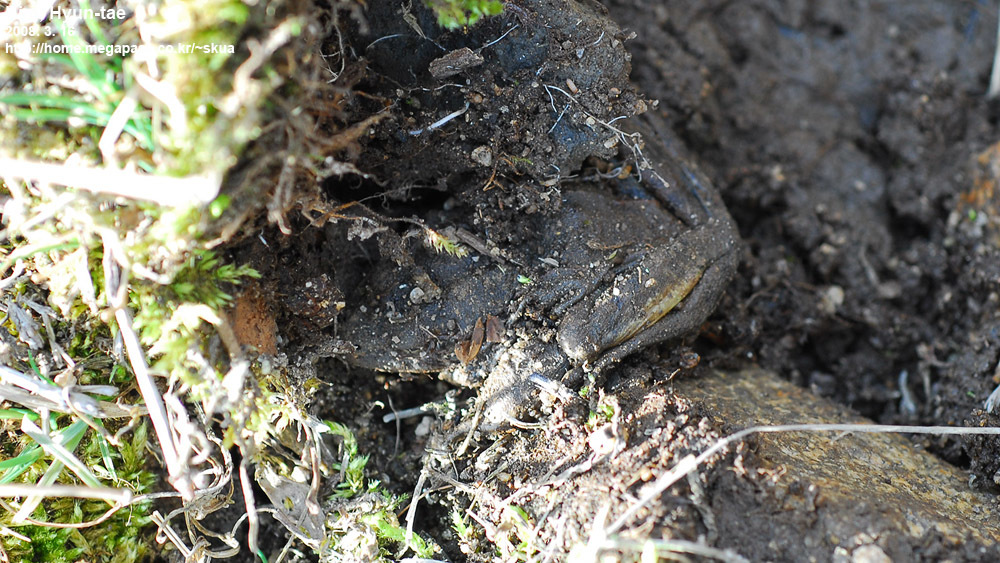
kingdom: Animalia
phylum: Chordata
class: Amphibia
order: Anura
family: Ranidae
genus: Rana
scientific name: Rana uenoi
